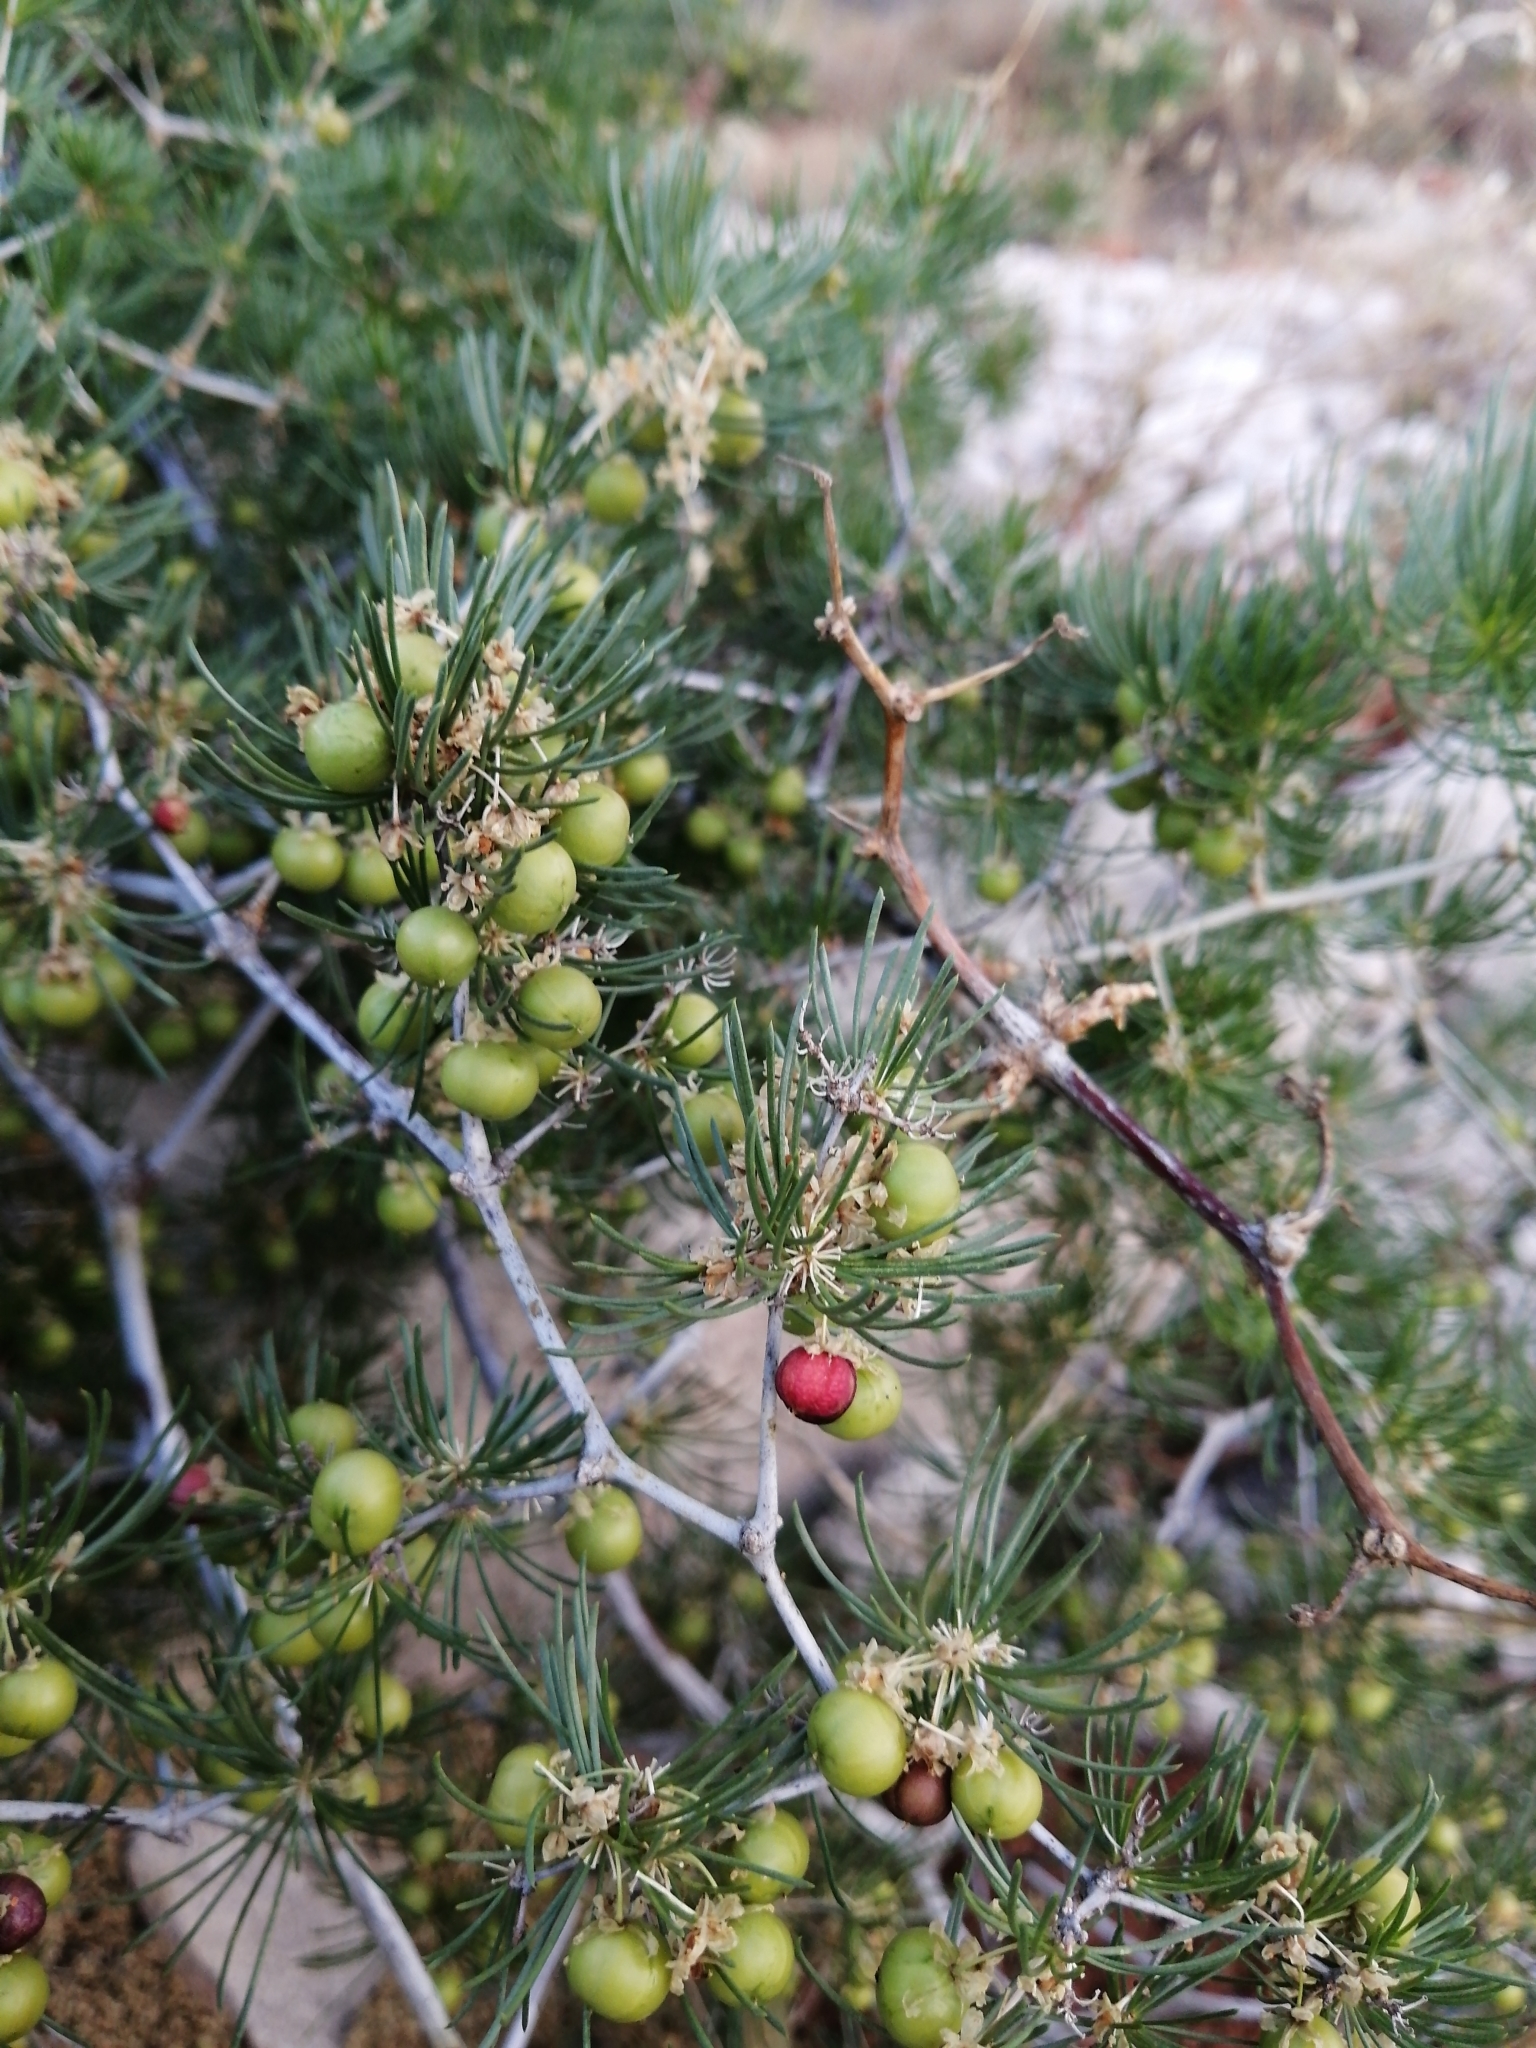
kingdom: Plantae
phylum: Tracheophyta
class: Liliopsida
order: Asparagales
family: Asparagaceae
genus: Asparagus
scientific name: Asparagus retrofractus
